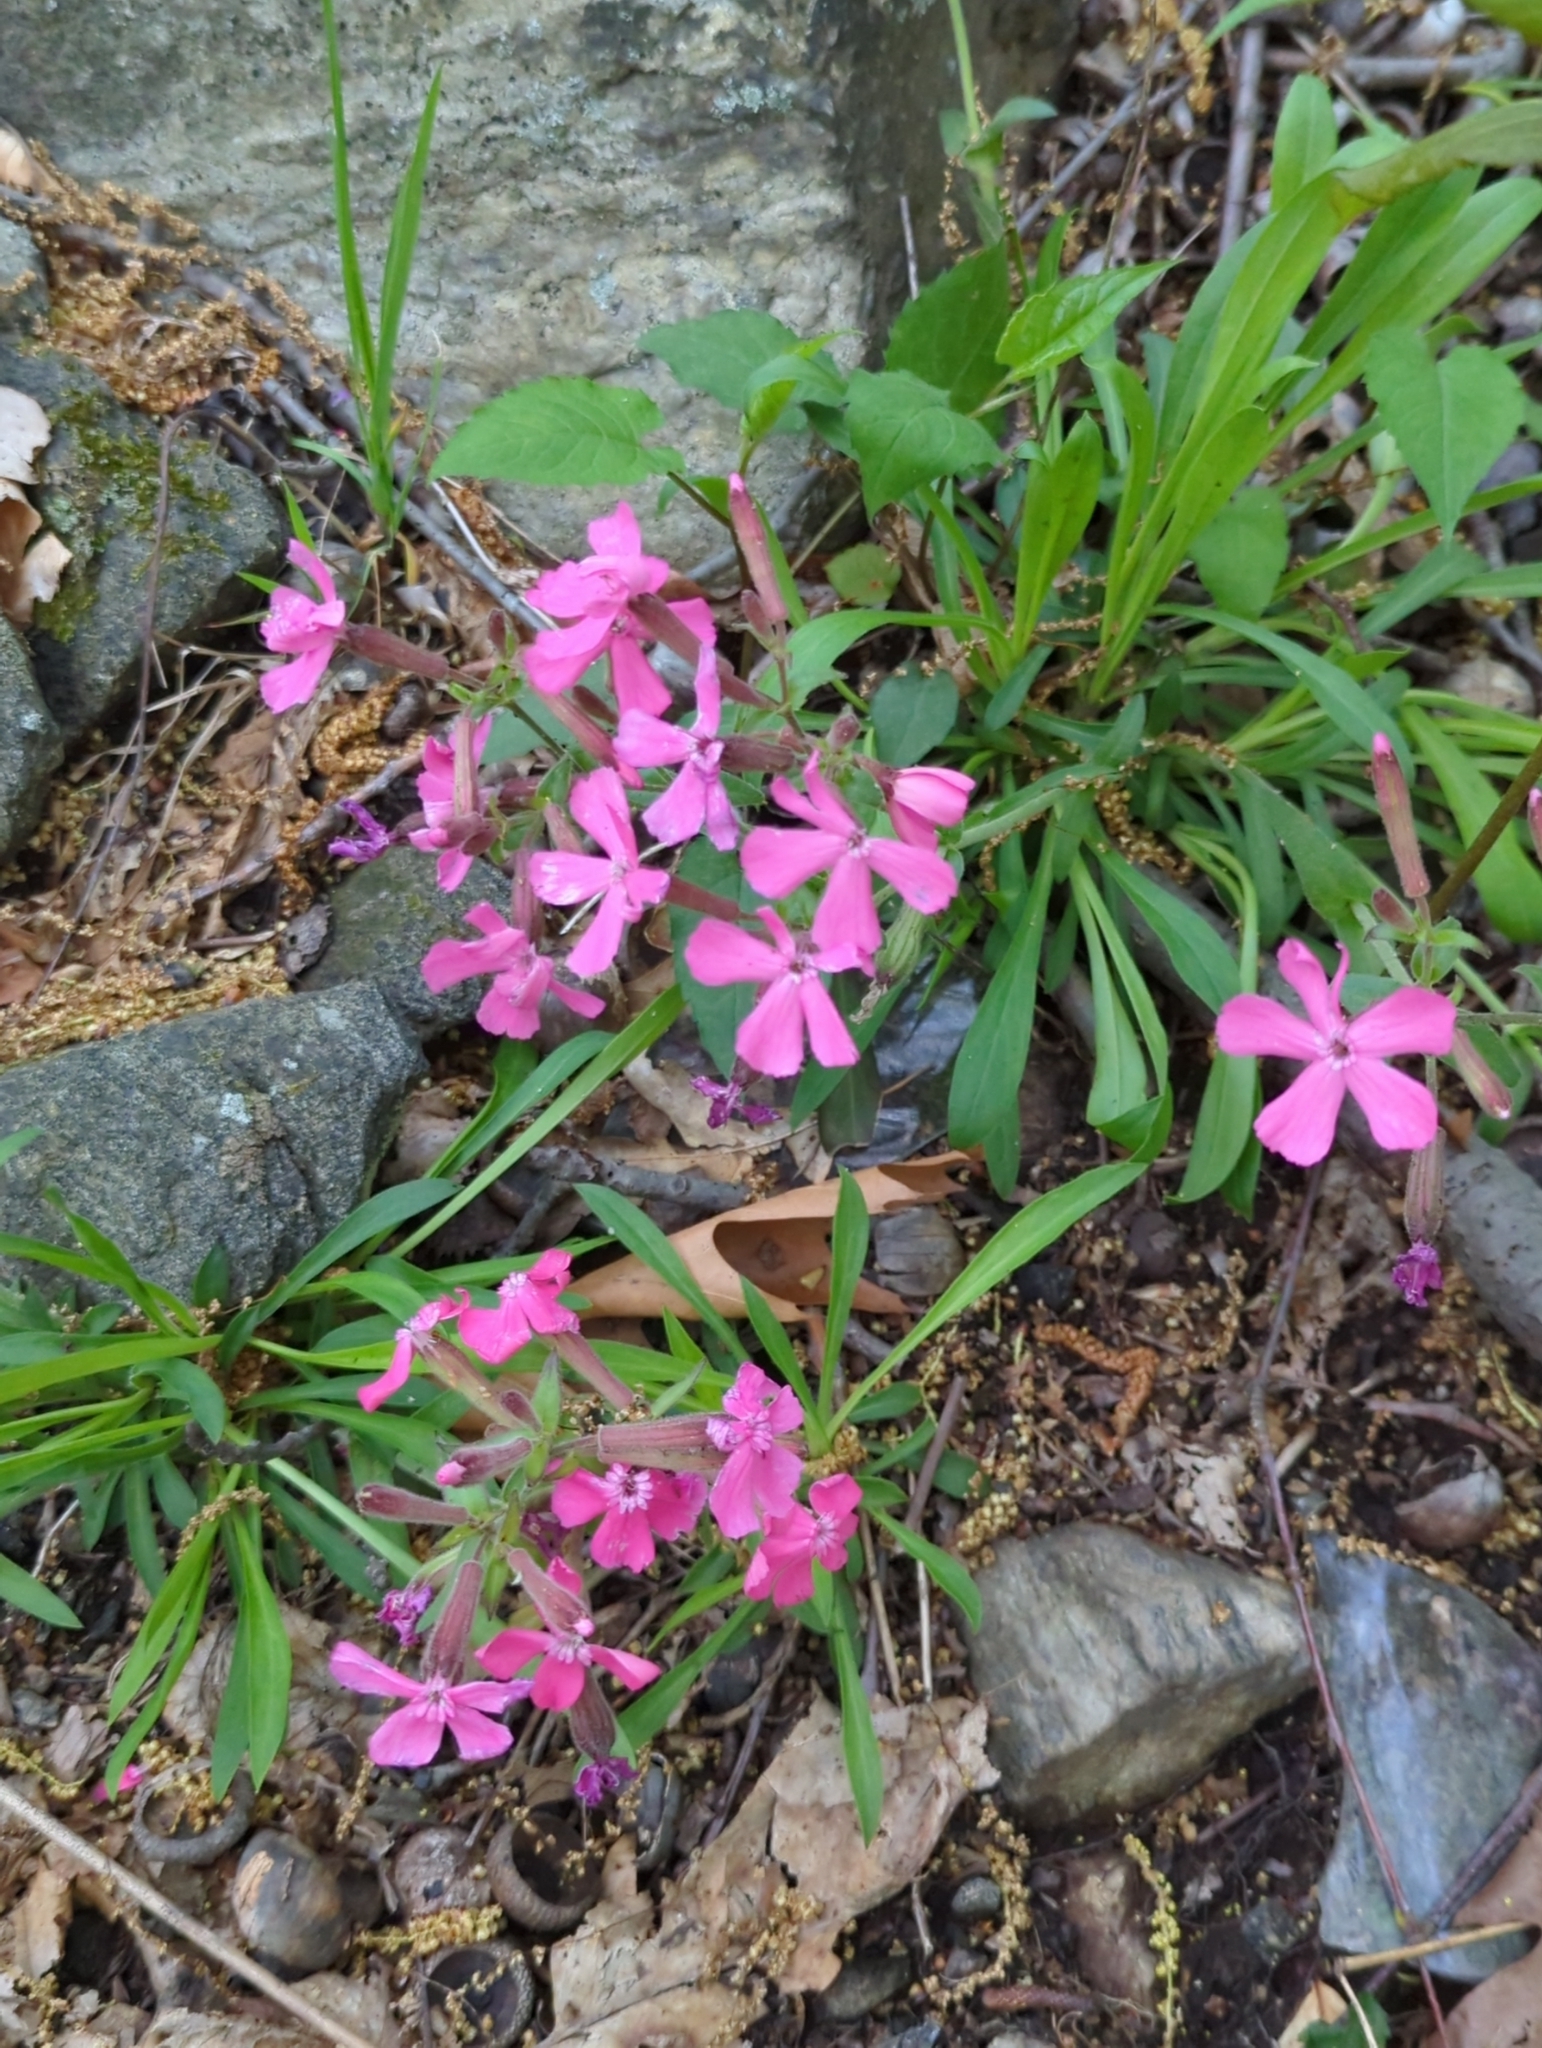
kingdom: Plantae
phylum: Tracheophyta
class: Magnoliopsida
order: Caryophyllales
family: Caryophyllaceae
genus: Silene
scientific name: Silene caroliniana
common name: Sticky catchfly
